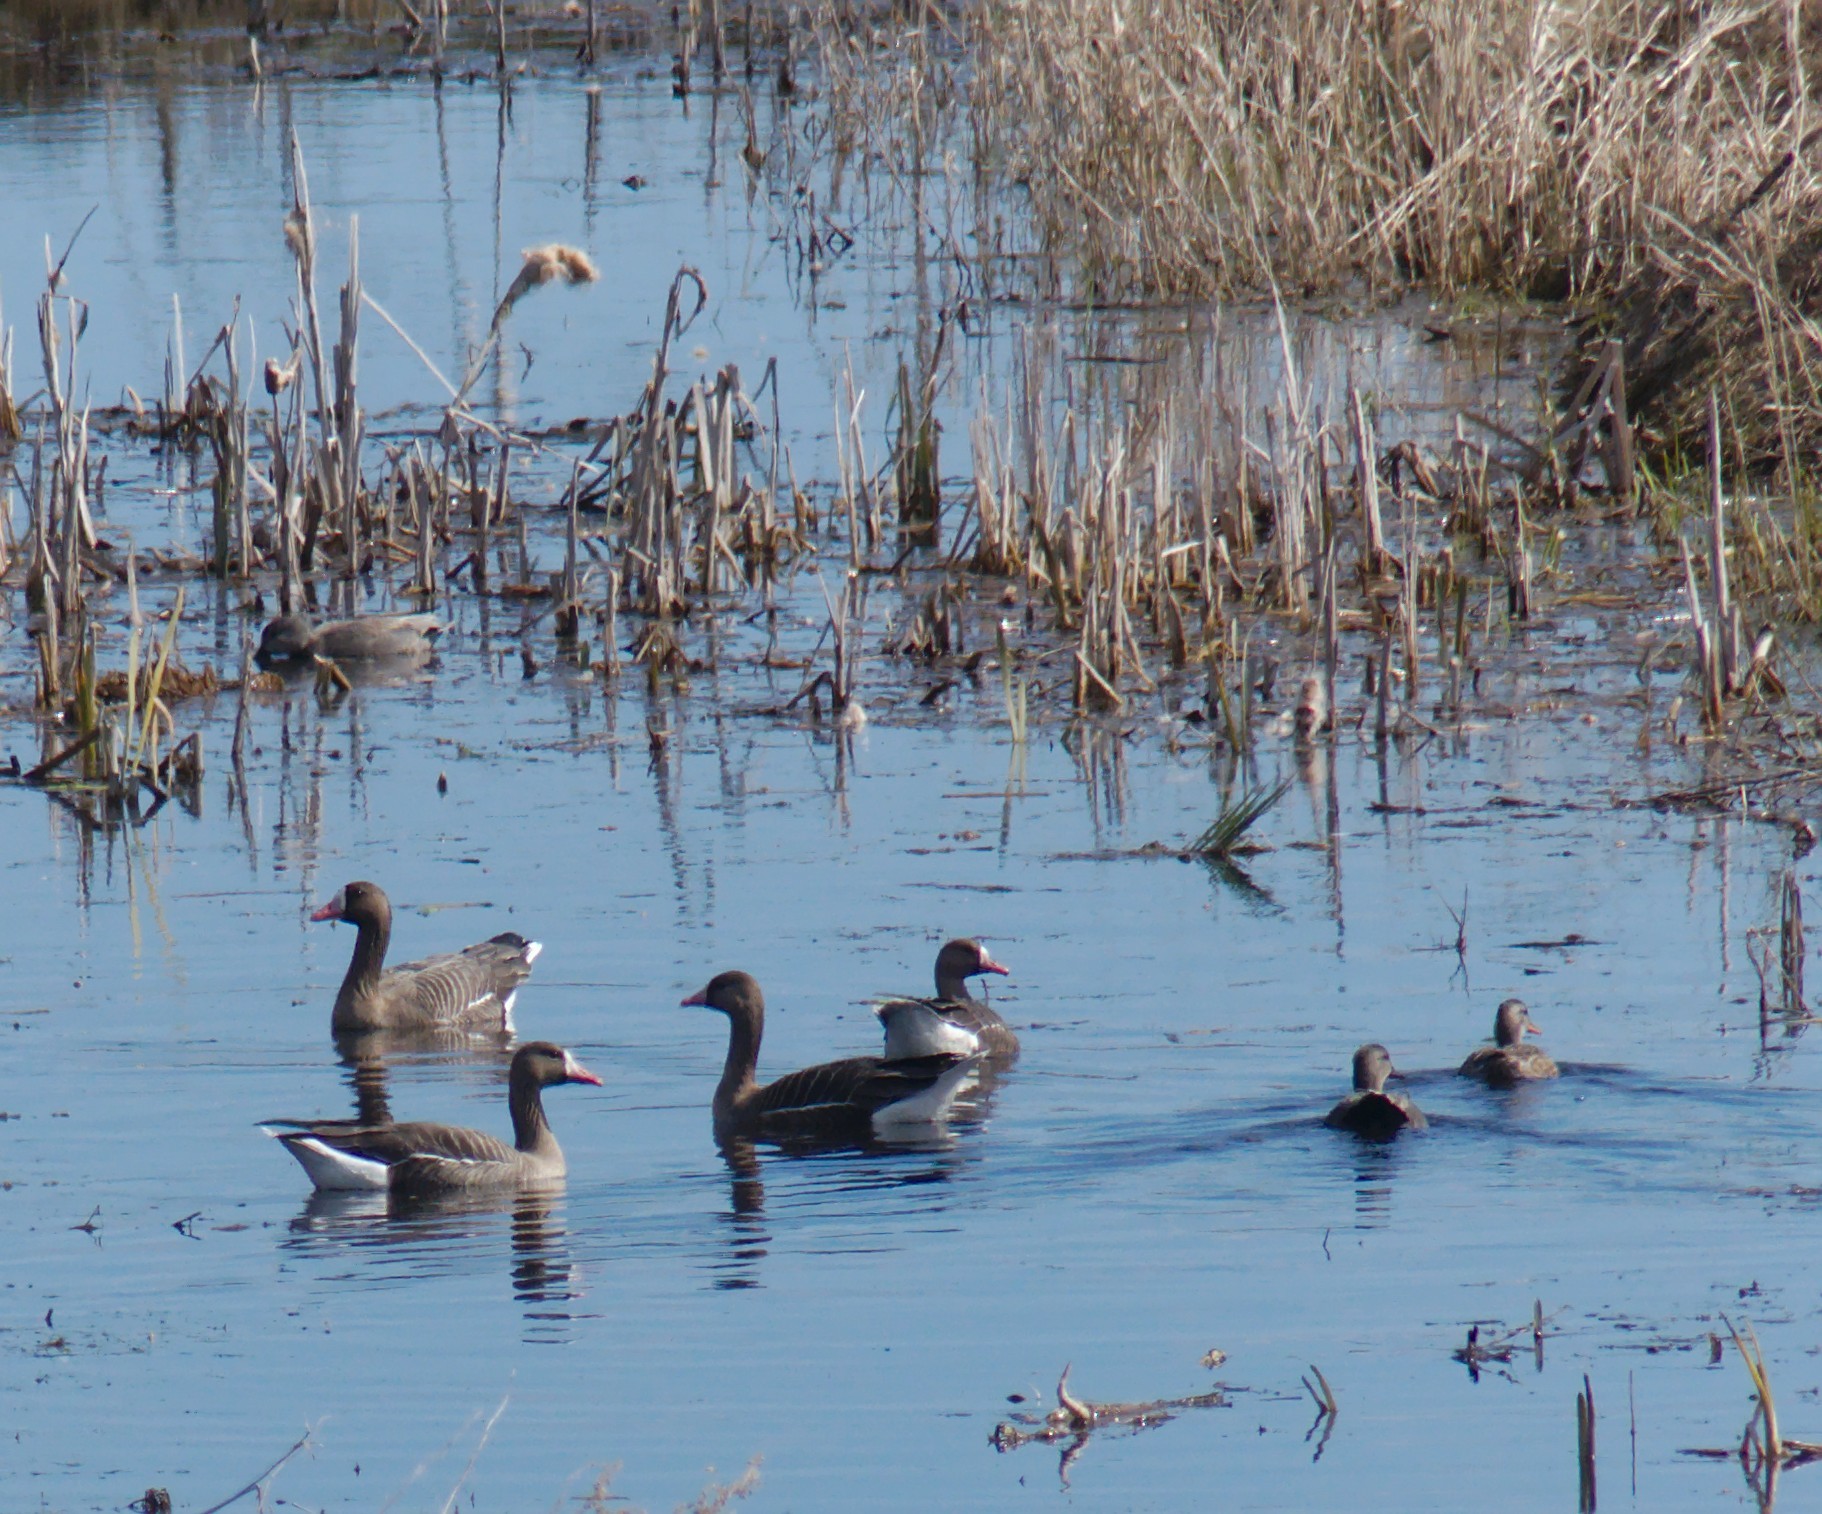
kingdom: Animalia
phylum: Chordata
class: Aves
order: Anseriformes
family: Anatidae
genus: Mareca
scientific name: Mareca strepera
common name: Gadwall
